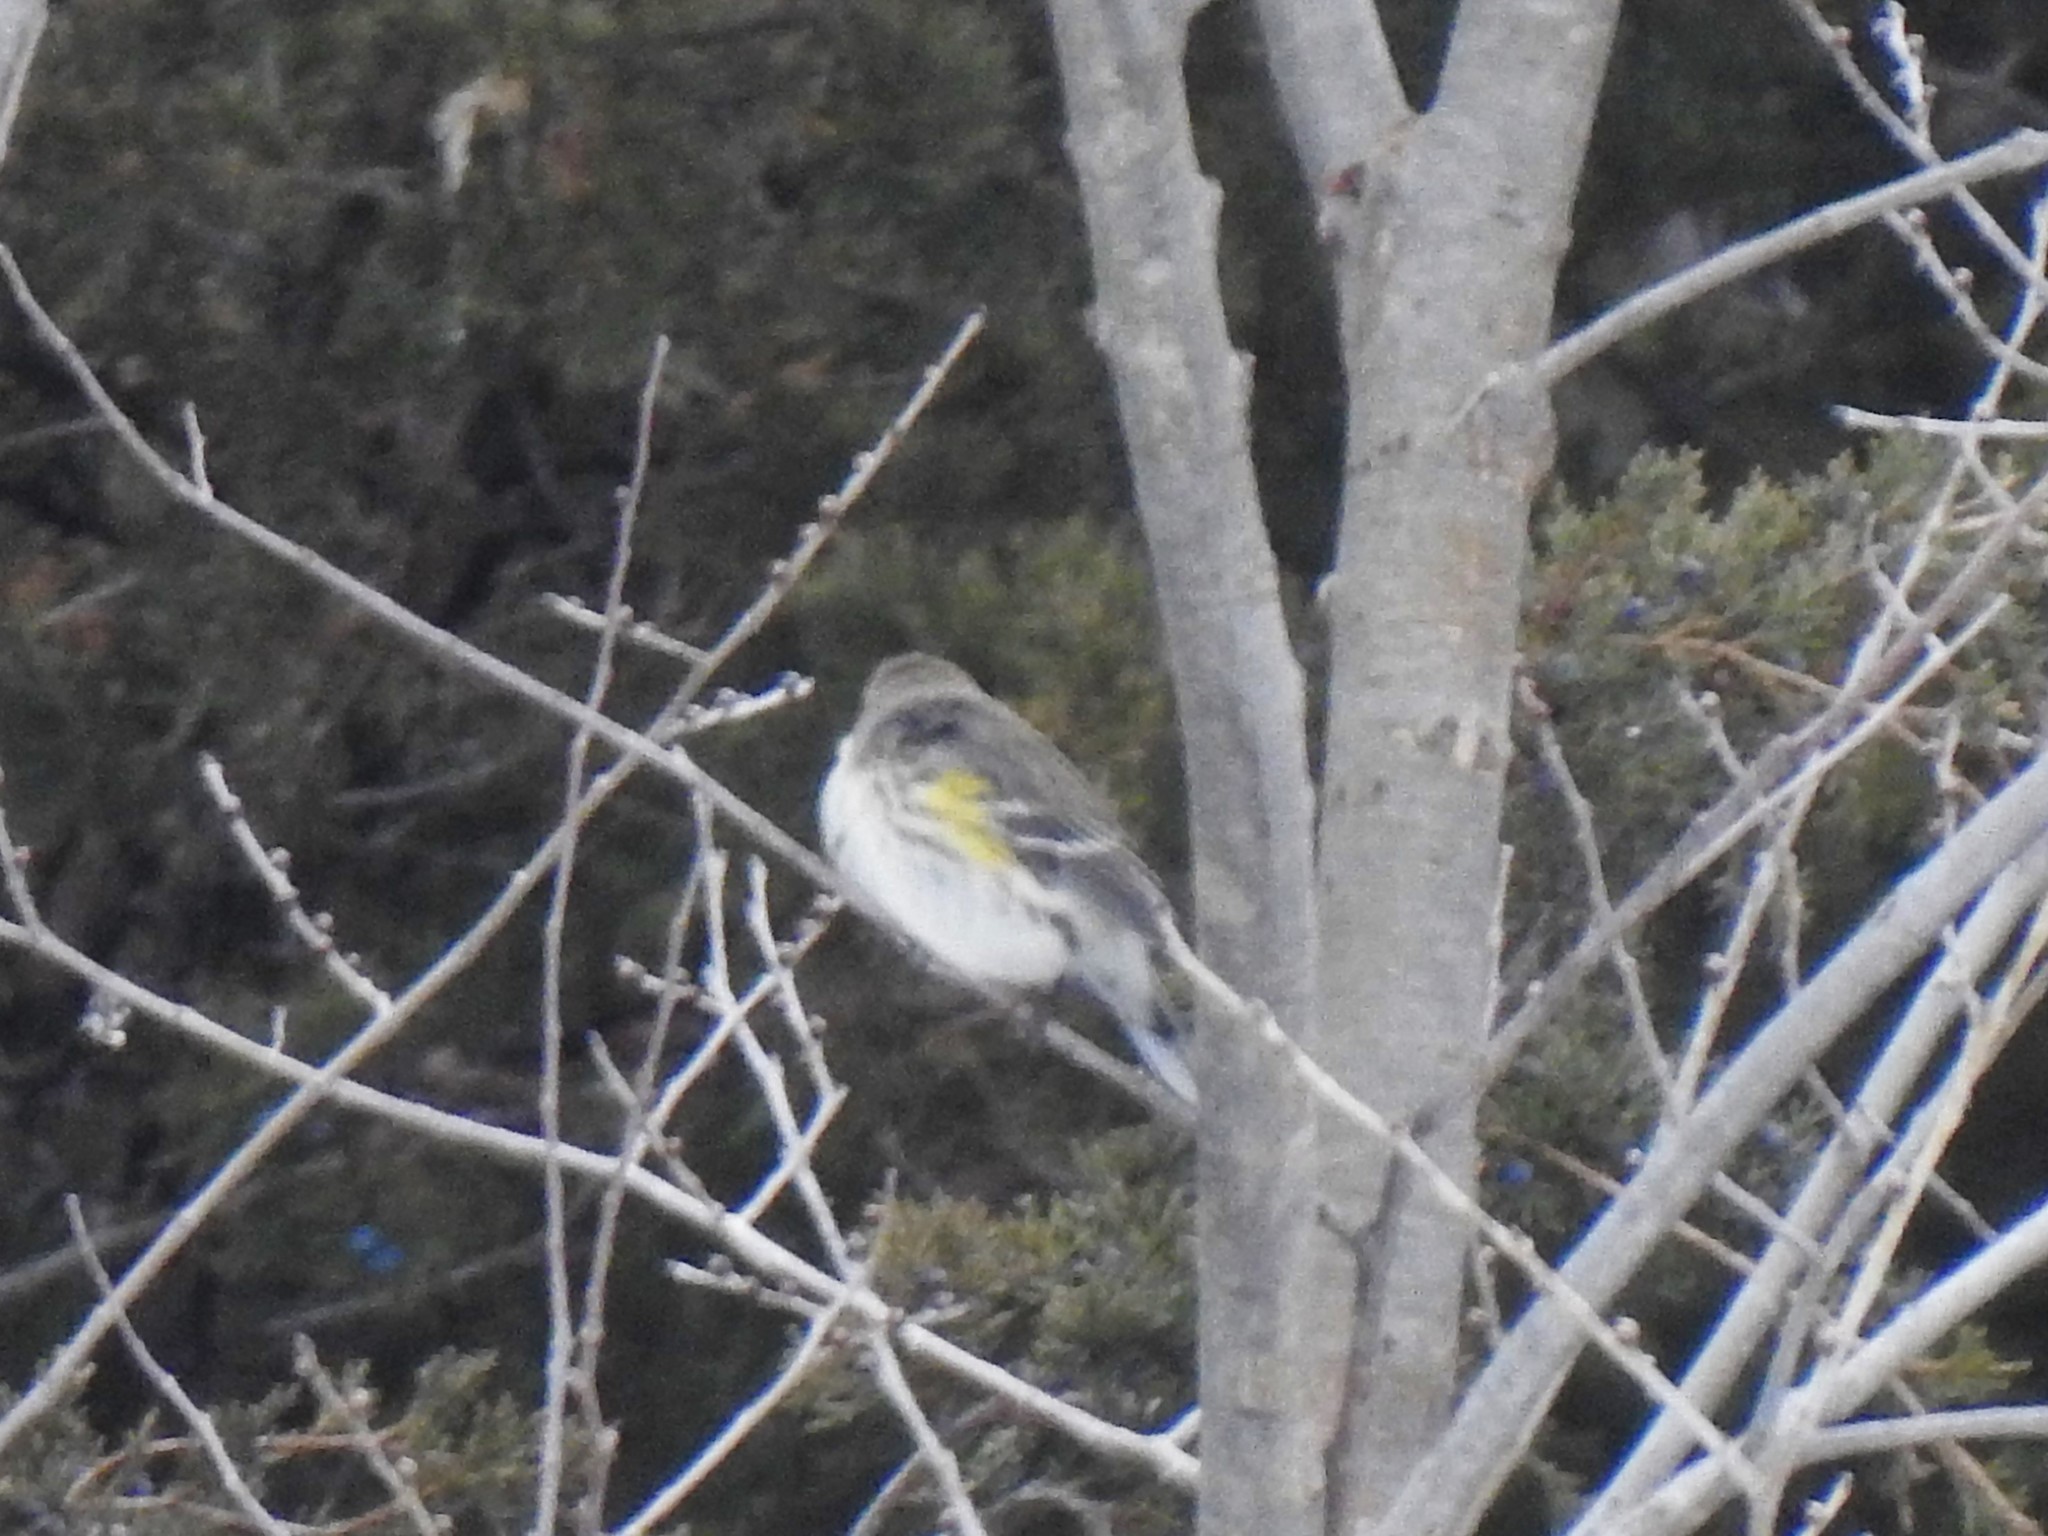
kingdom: Animalia
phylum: Chordata
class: Aves
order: Passeriformes
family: Parulidae
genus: Setophaga
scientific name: Setophaga coronata
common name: Myrtle warbler
